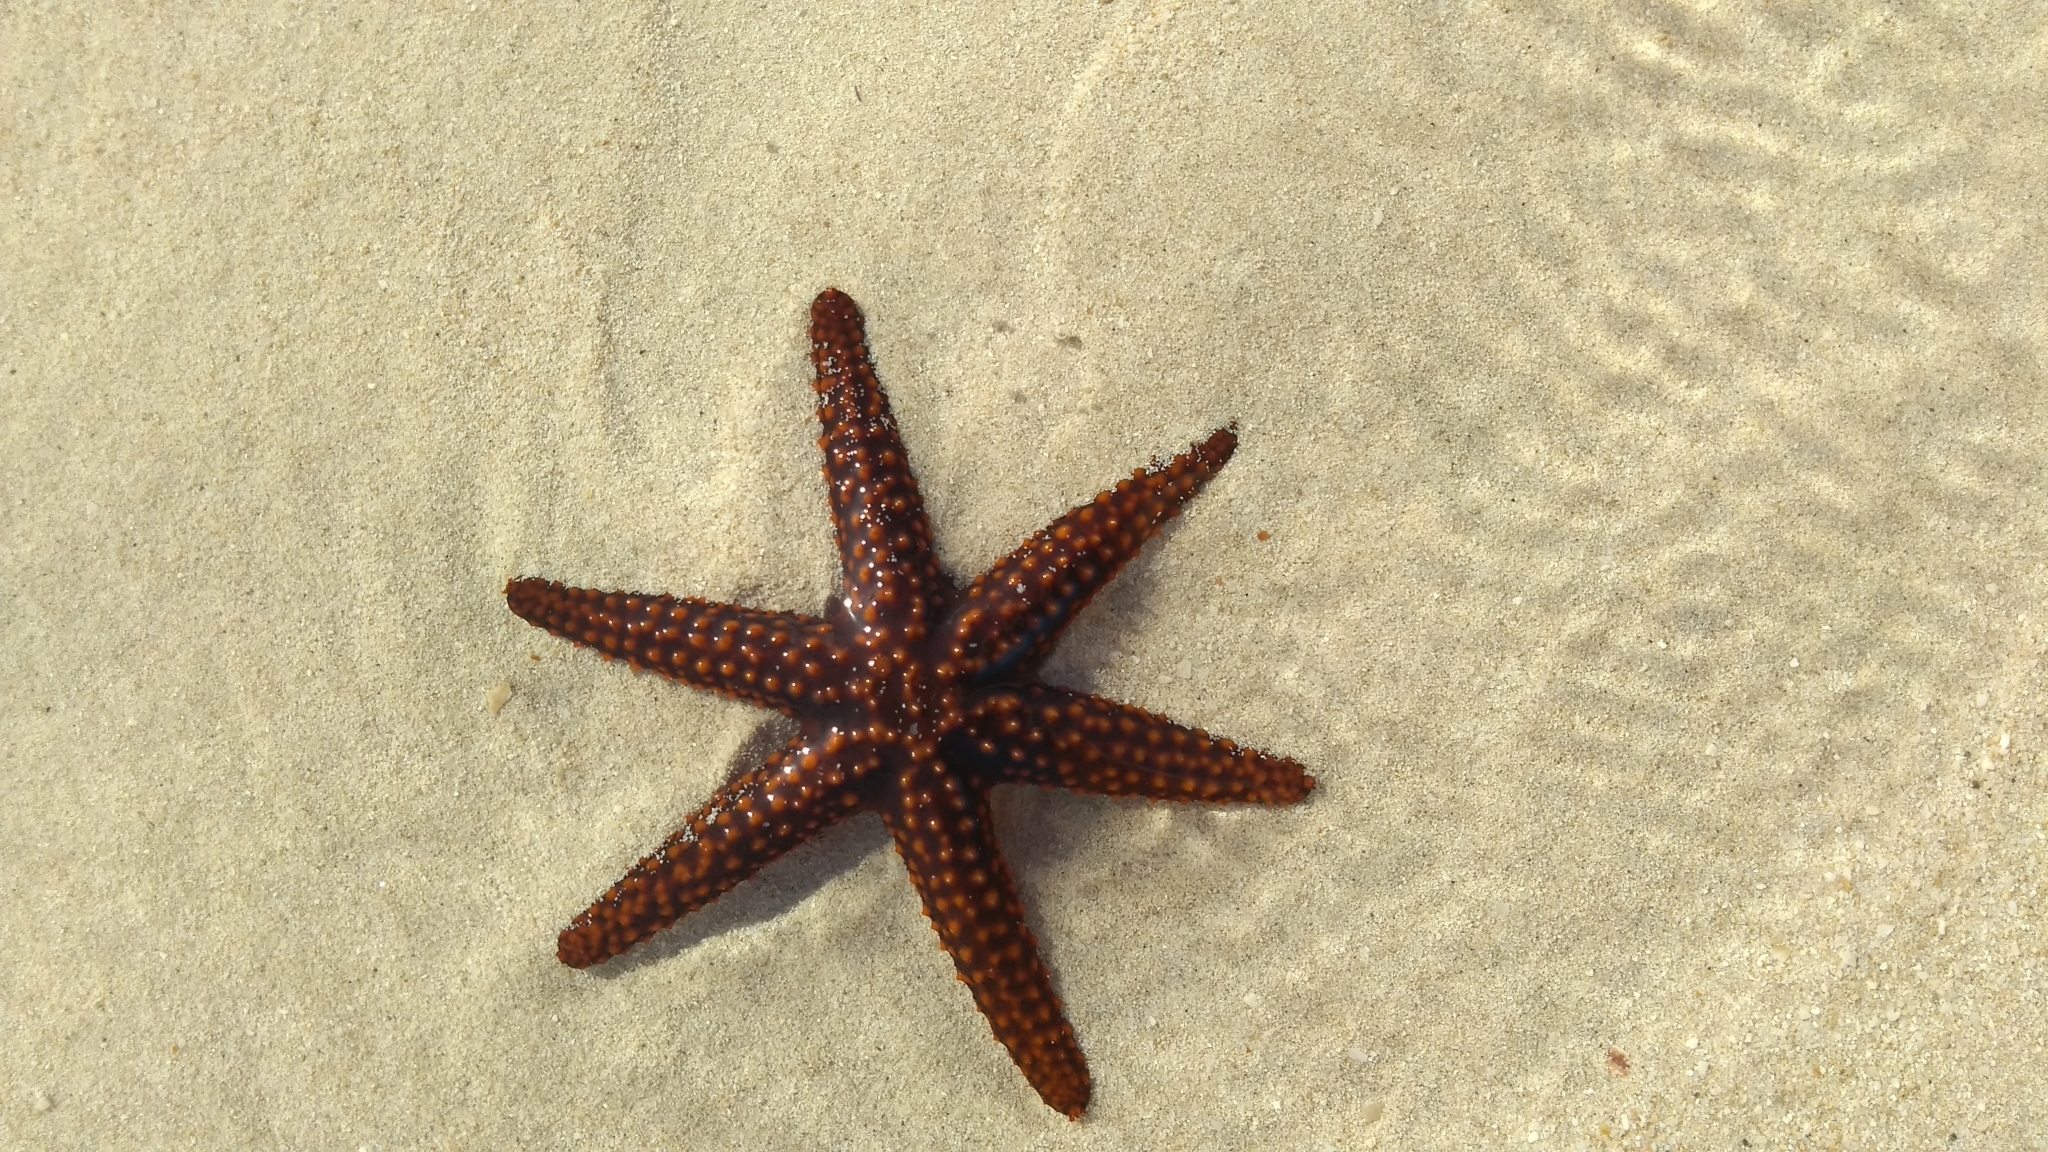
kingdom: Animalia
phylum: Echinodermata
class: Asteroidea
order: Spinulosida
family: Echinasteridae
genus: Echinaster
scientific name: Echinaster sentus
